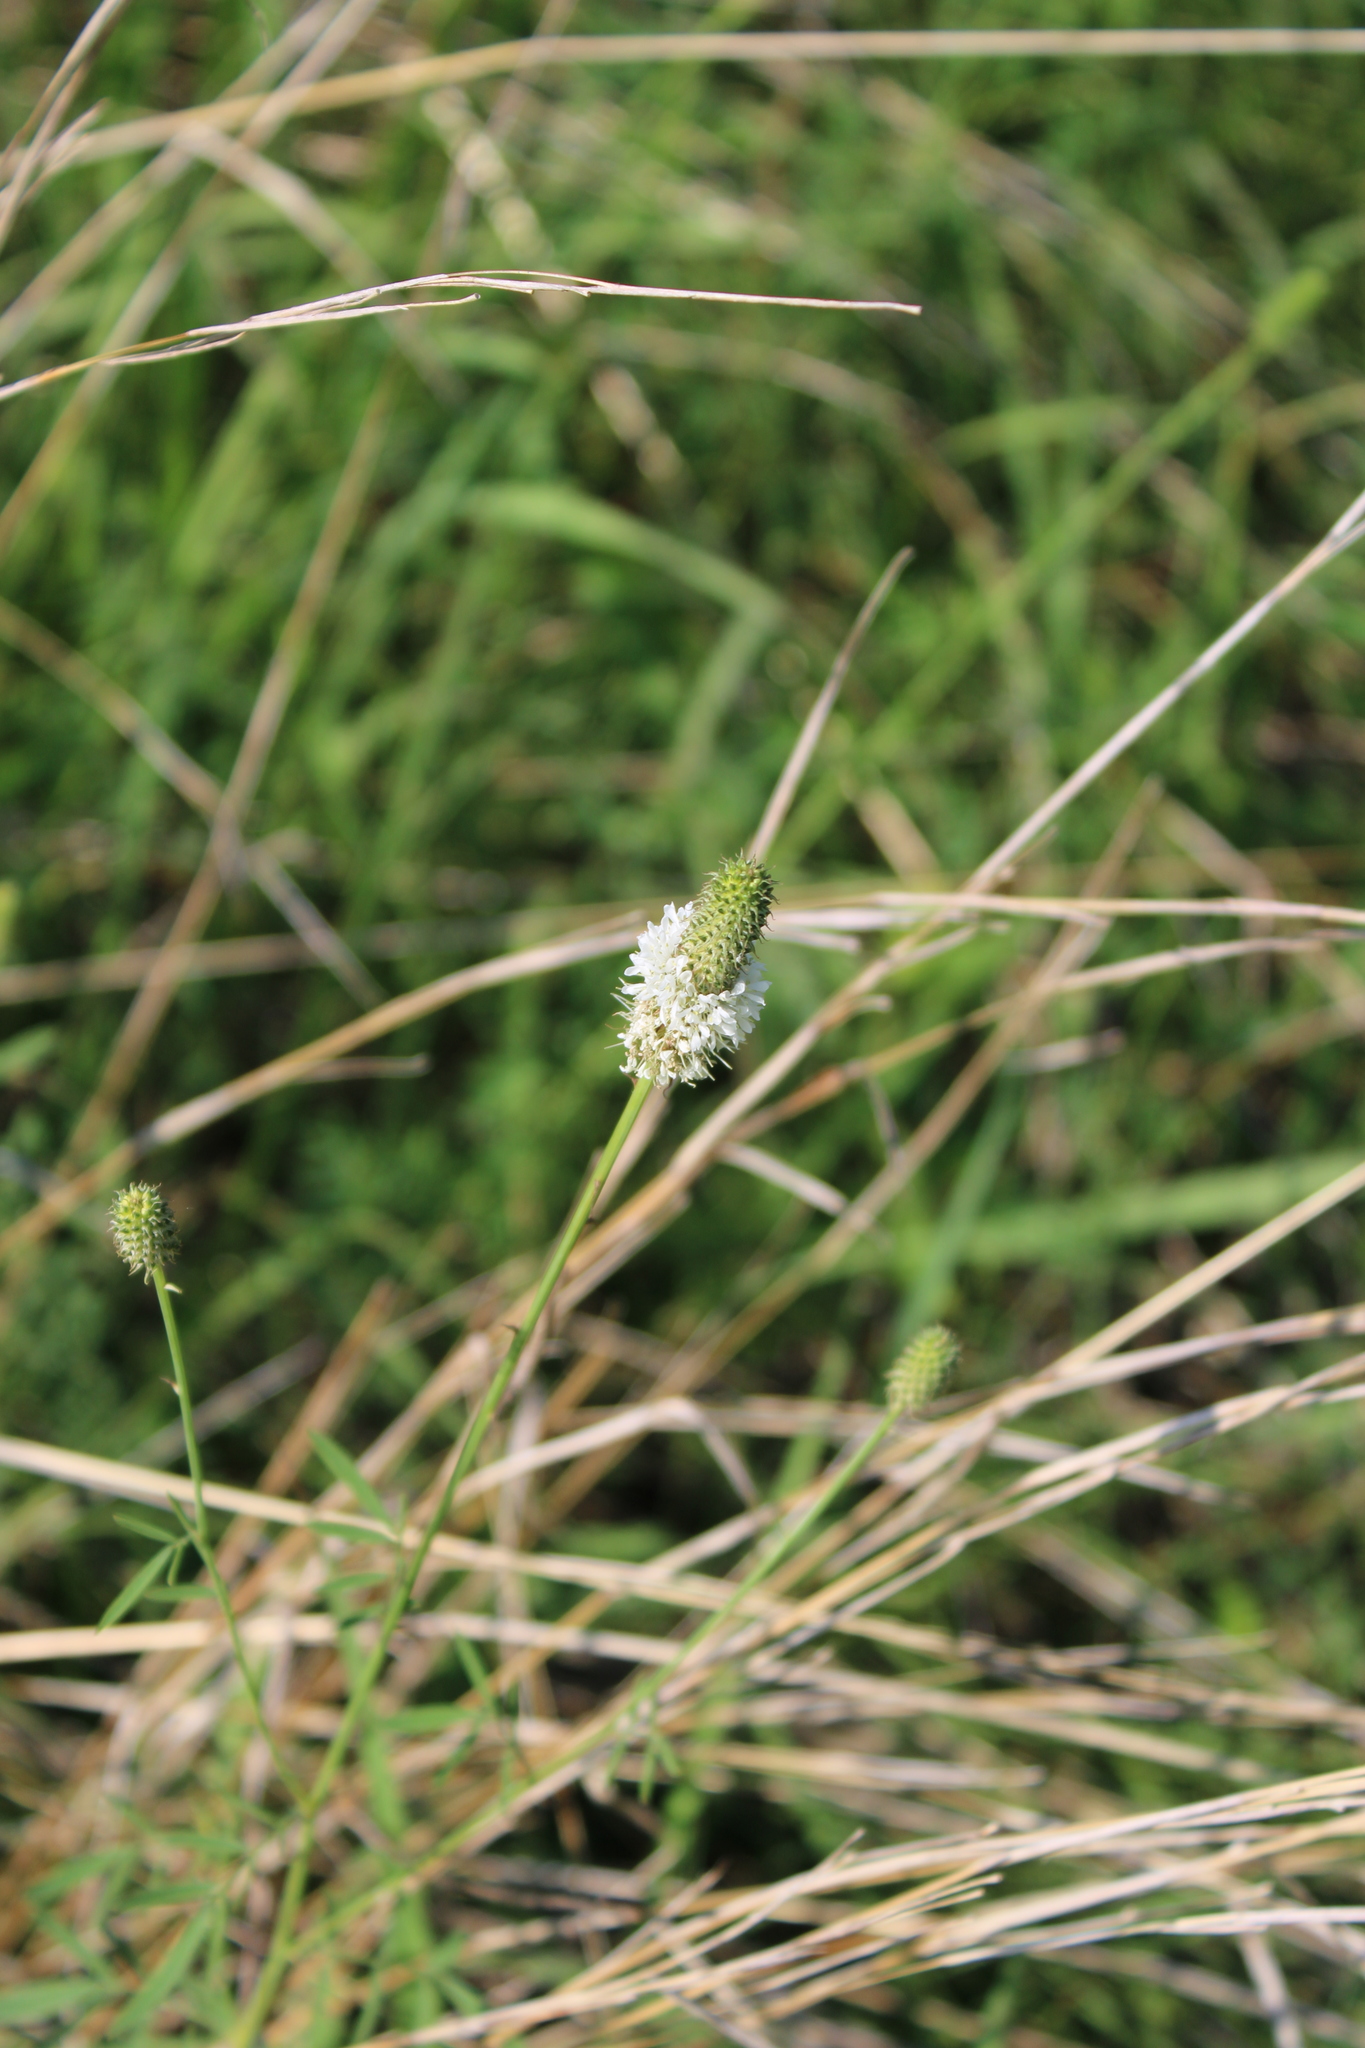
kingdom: Plantae
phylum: Tracheophyta
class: Magnoliopsida
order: Fabales
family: Fabaceae
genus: Dalea
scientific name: Dalea candida
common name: White prairie-clover
